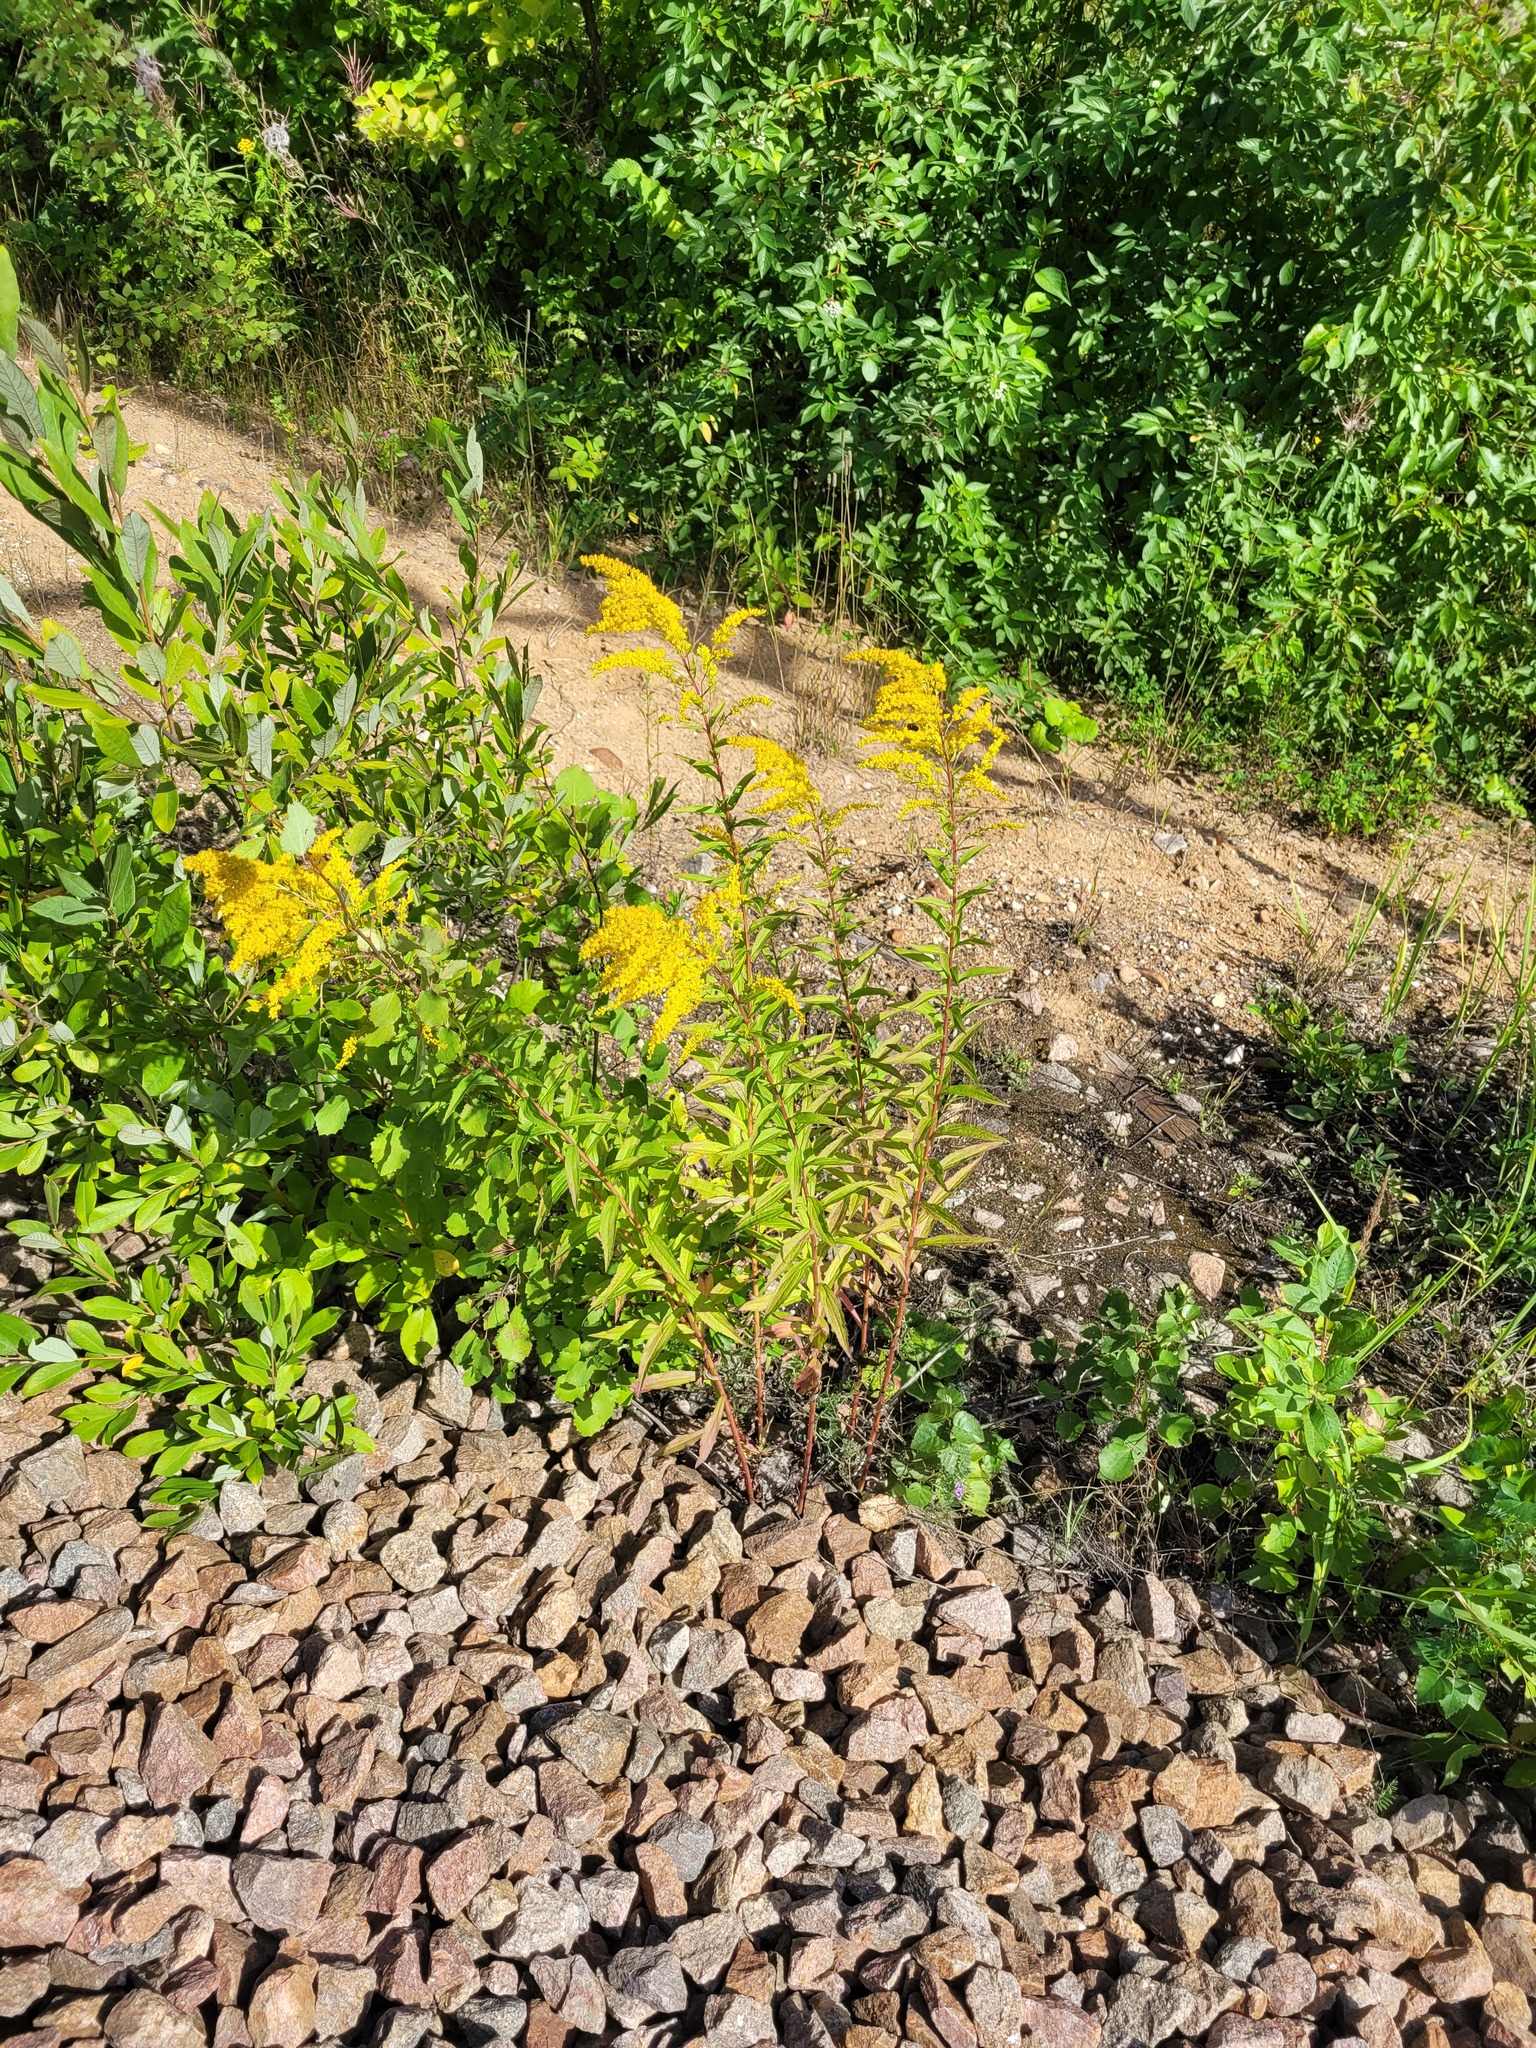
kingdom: Plantae
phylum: Tracheophyta
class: Magnoliopsida
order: Asterales
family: Asteraceae
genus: Solidago
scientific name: Solidago canadensis
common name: Canada goldenrod
